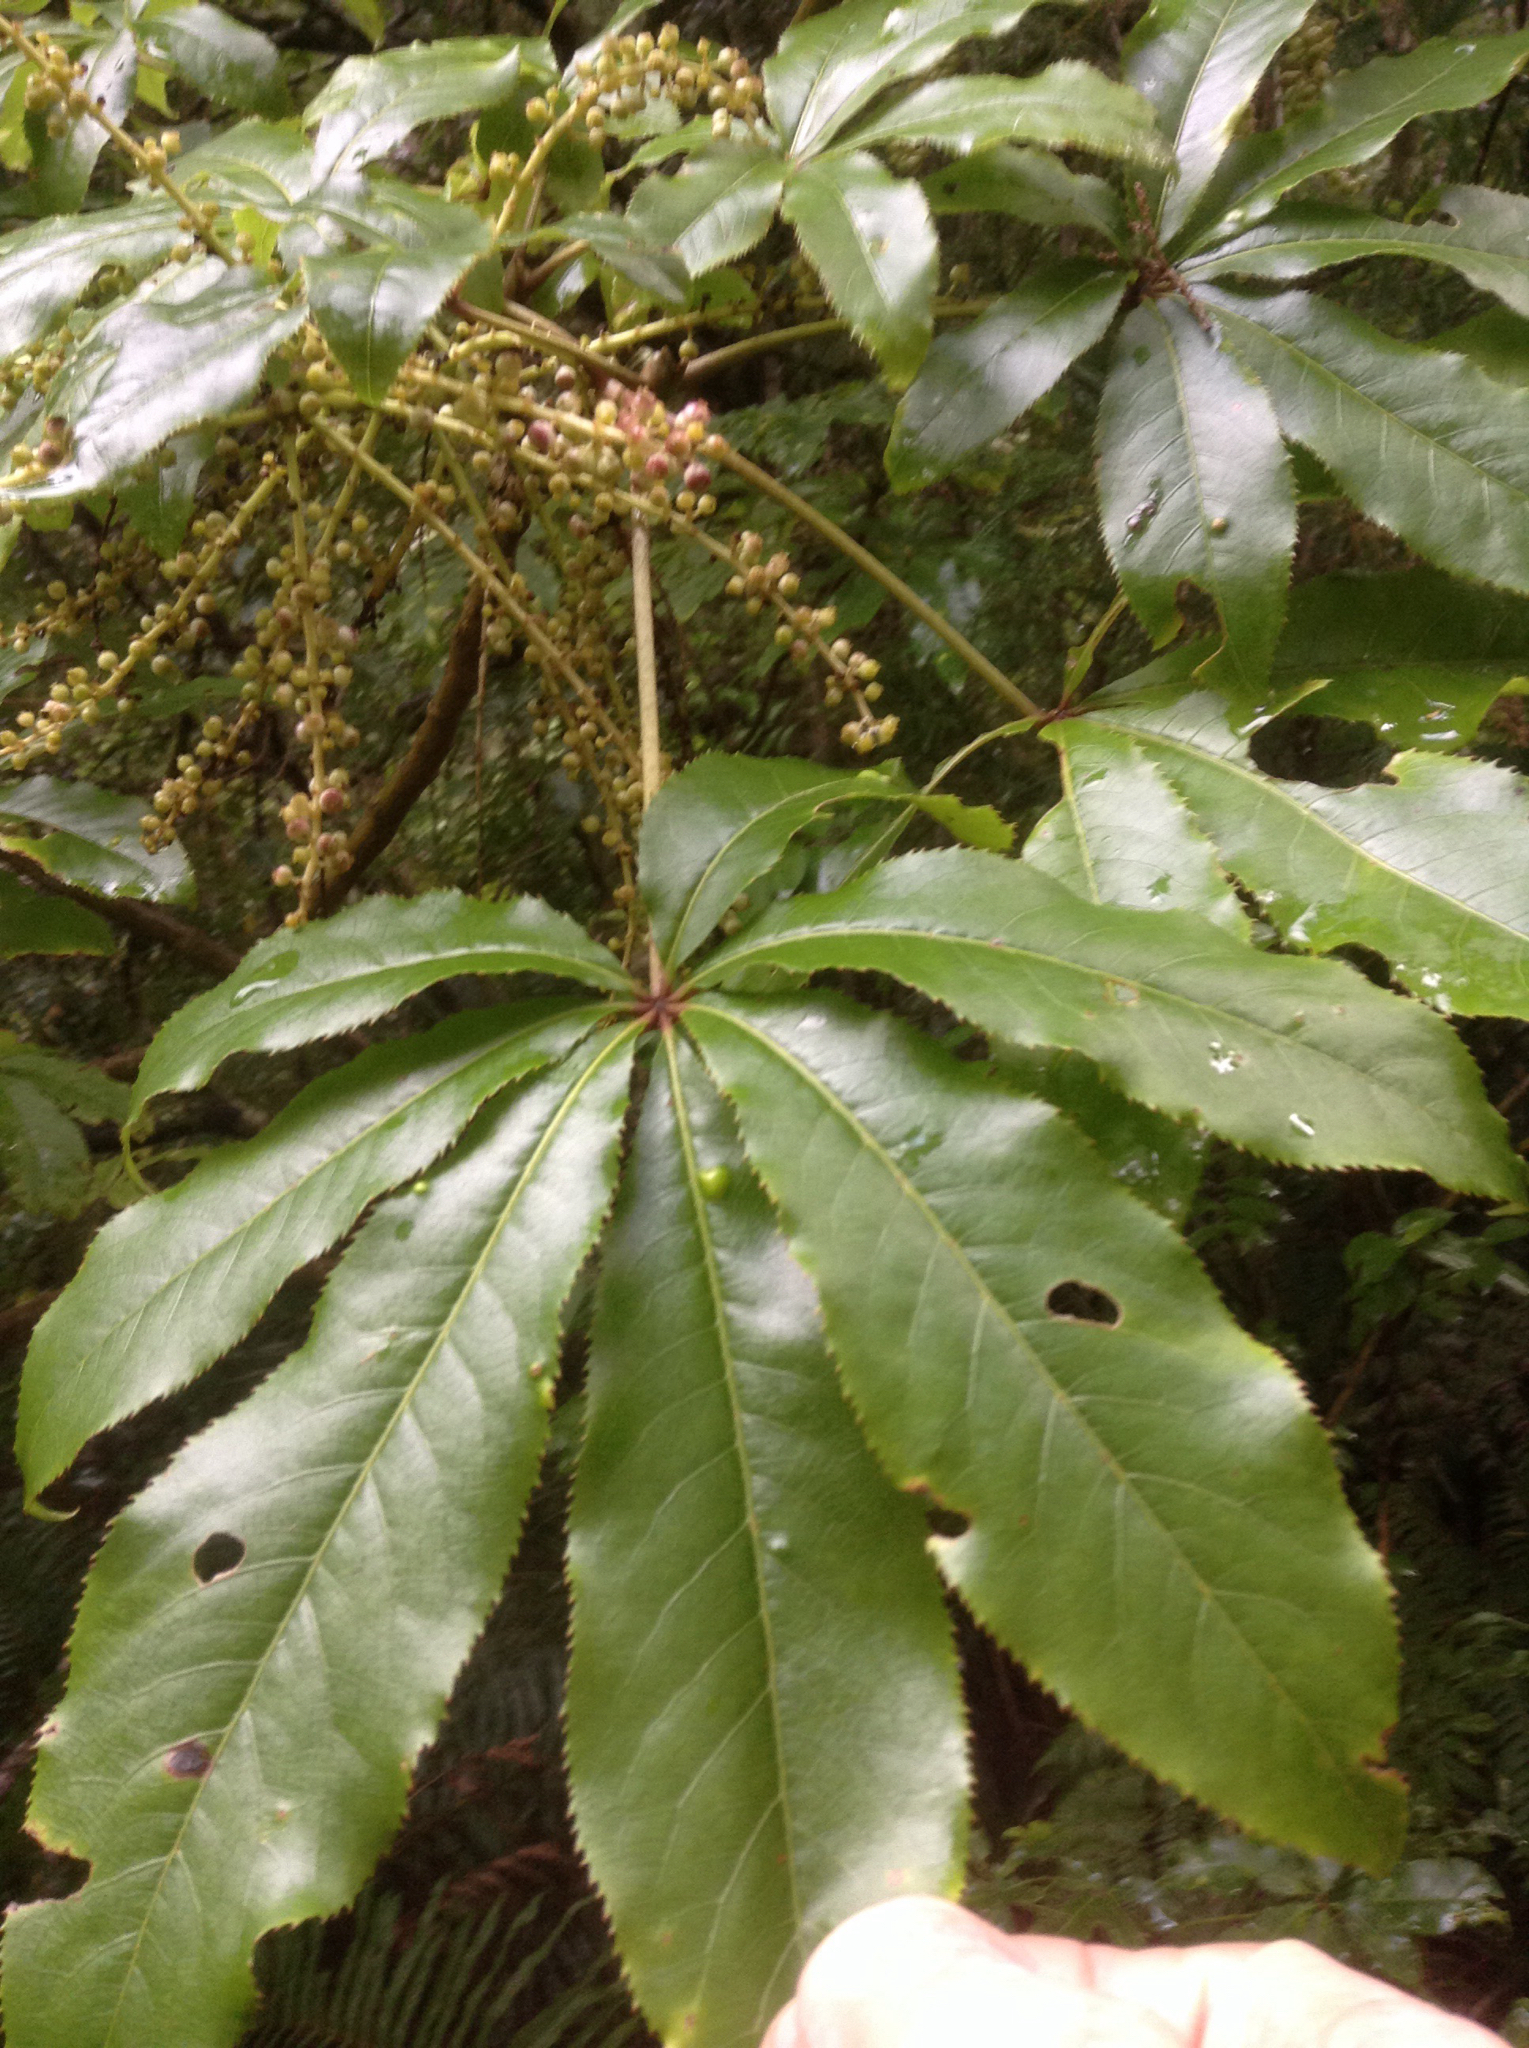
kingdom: Plantae
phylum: Tracheophyta
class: Magnoliopsida
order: Apiales
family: Araliaceae
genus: Schefflera
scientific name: Schefflera digitata
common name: Pate
